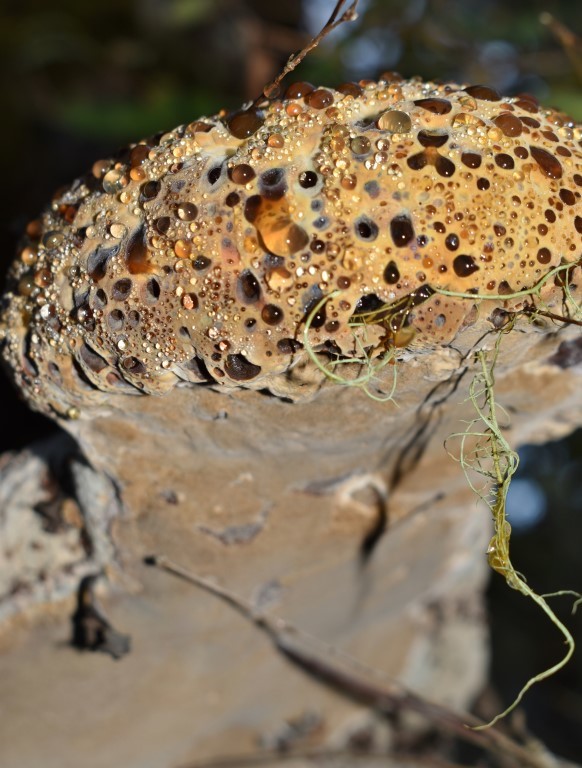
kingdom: Fungi
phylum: Basidiomycota
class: Agaricomycetes
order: Hymenochaetales
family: Hymenochaetaceae
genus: Pseudoinonotus
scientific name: Pseudoinonotus dryadeus
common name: Oak bracket
